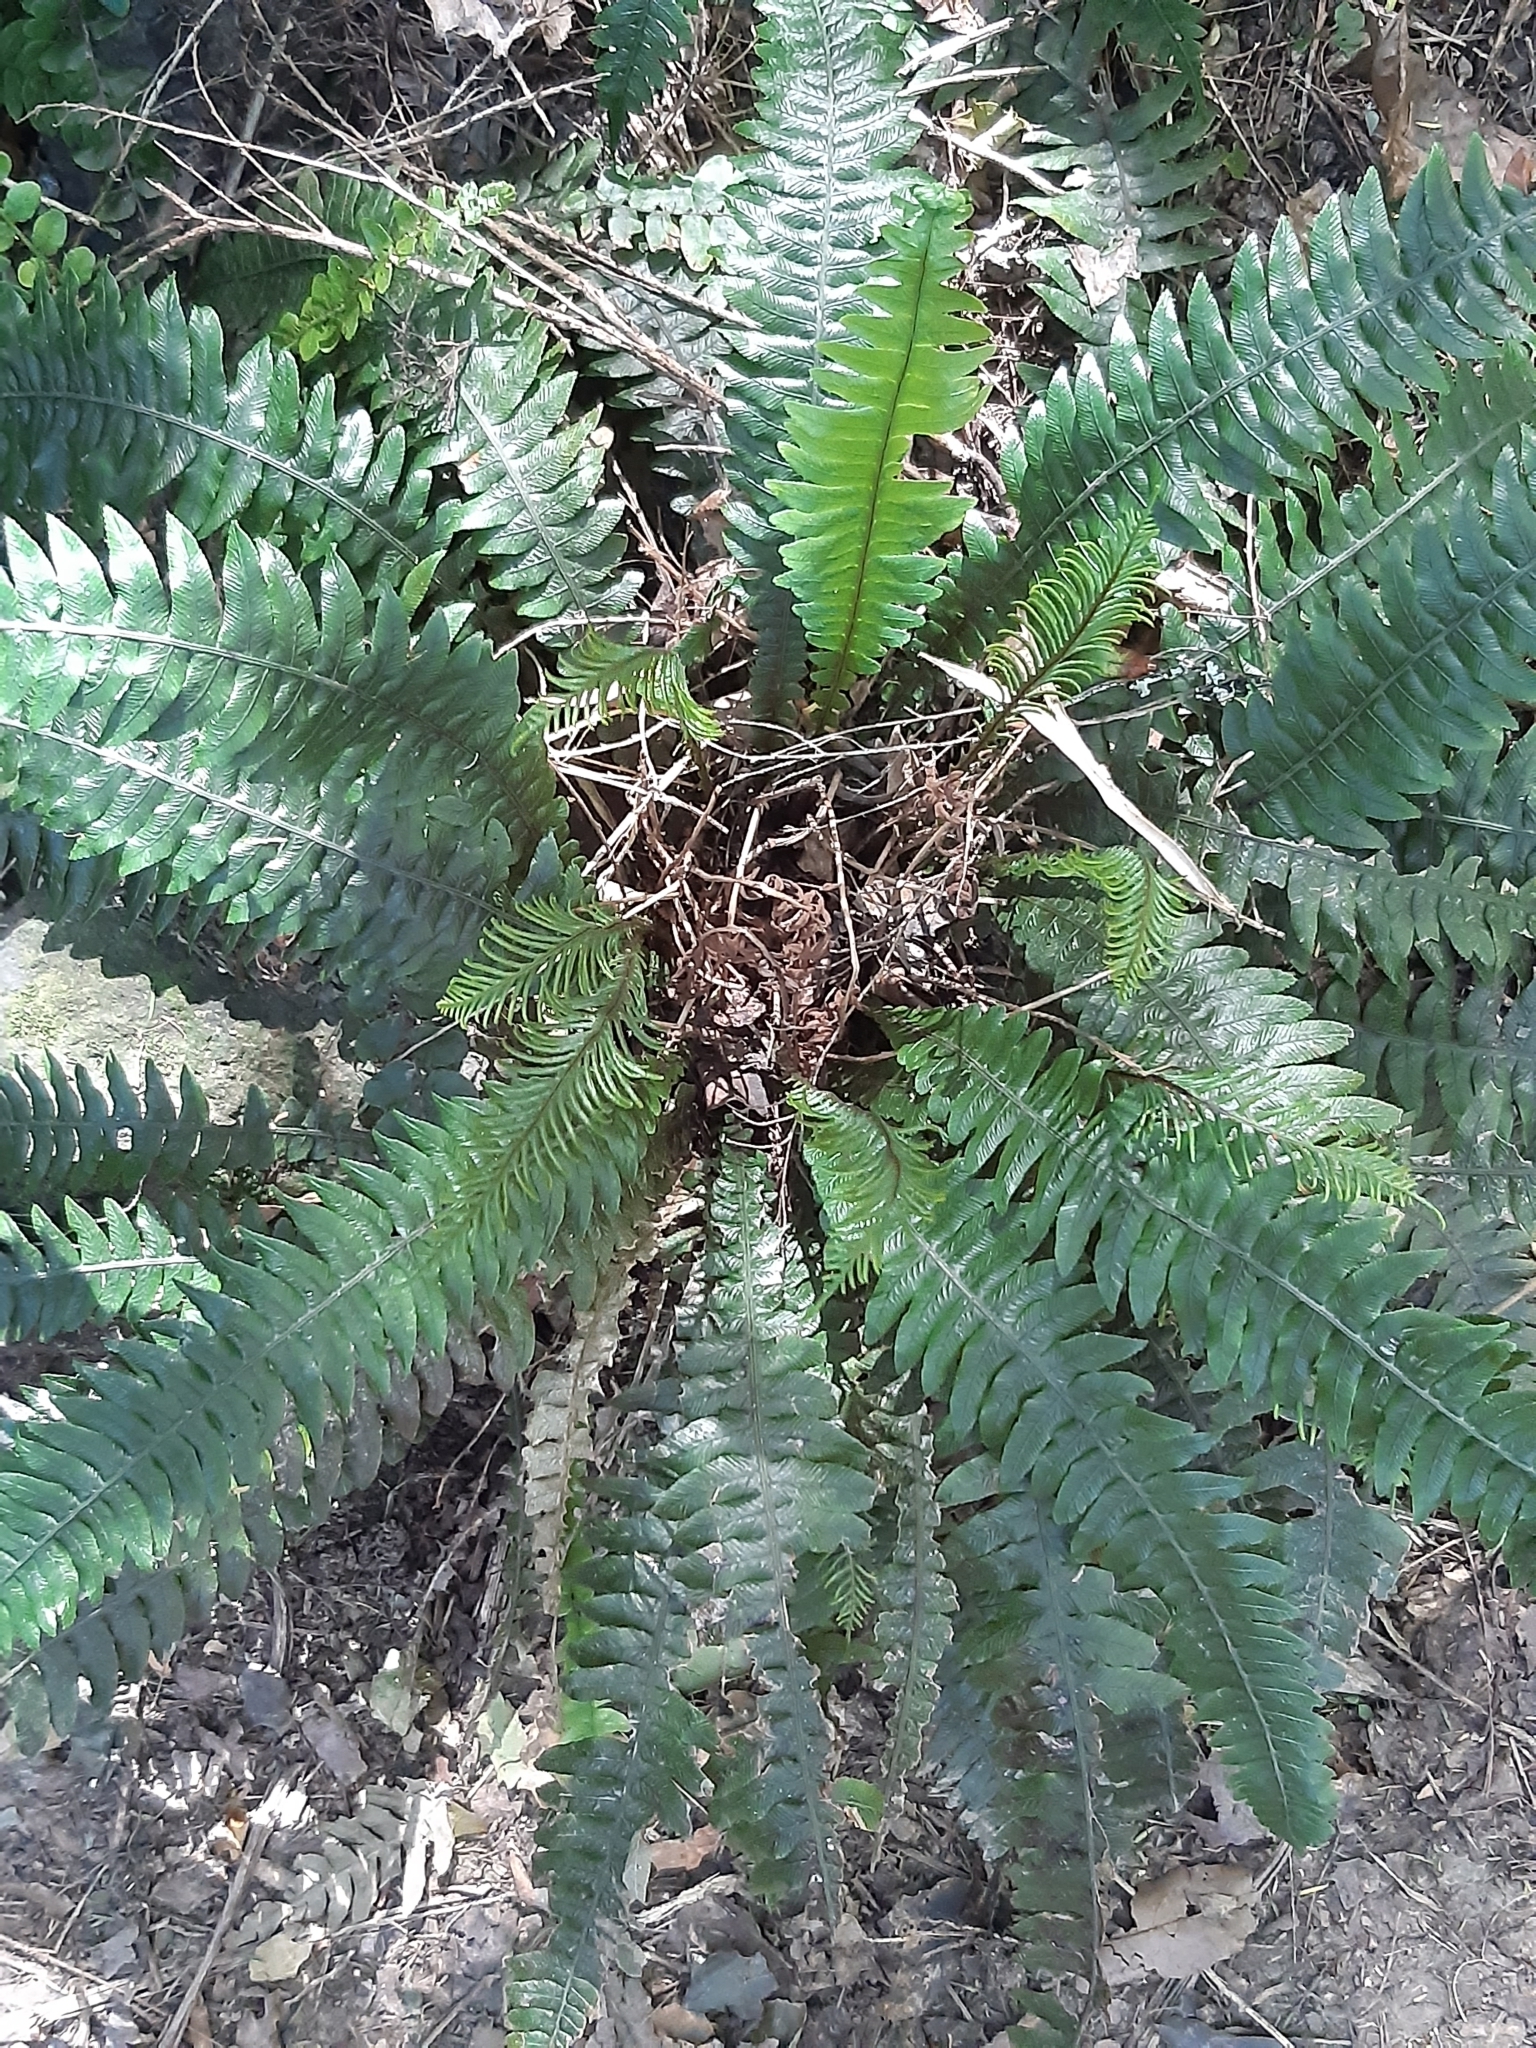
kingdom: Plantae
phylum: Tracheophyta
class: Polypodiopsida
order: Polypodiales
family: Blechnaceae
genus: Austroblechnum
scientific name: Austroblechnum lanceolatum
